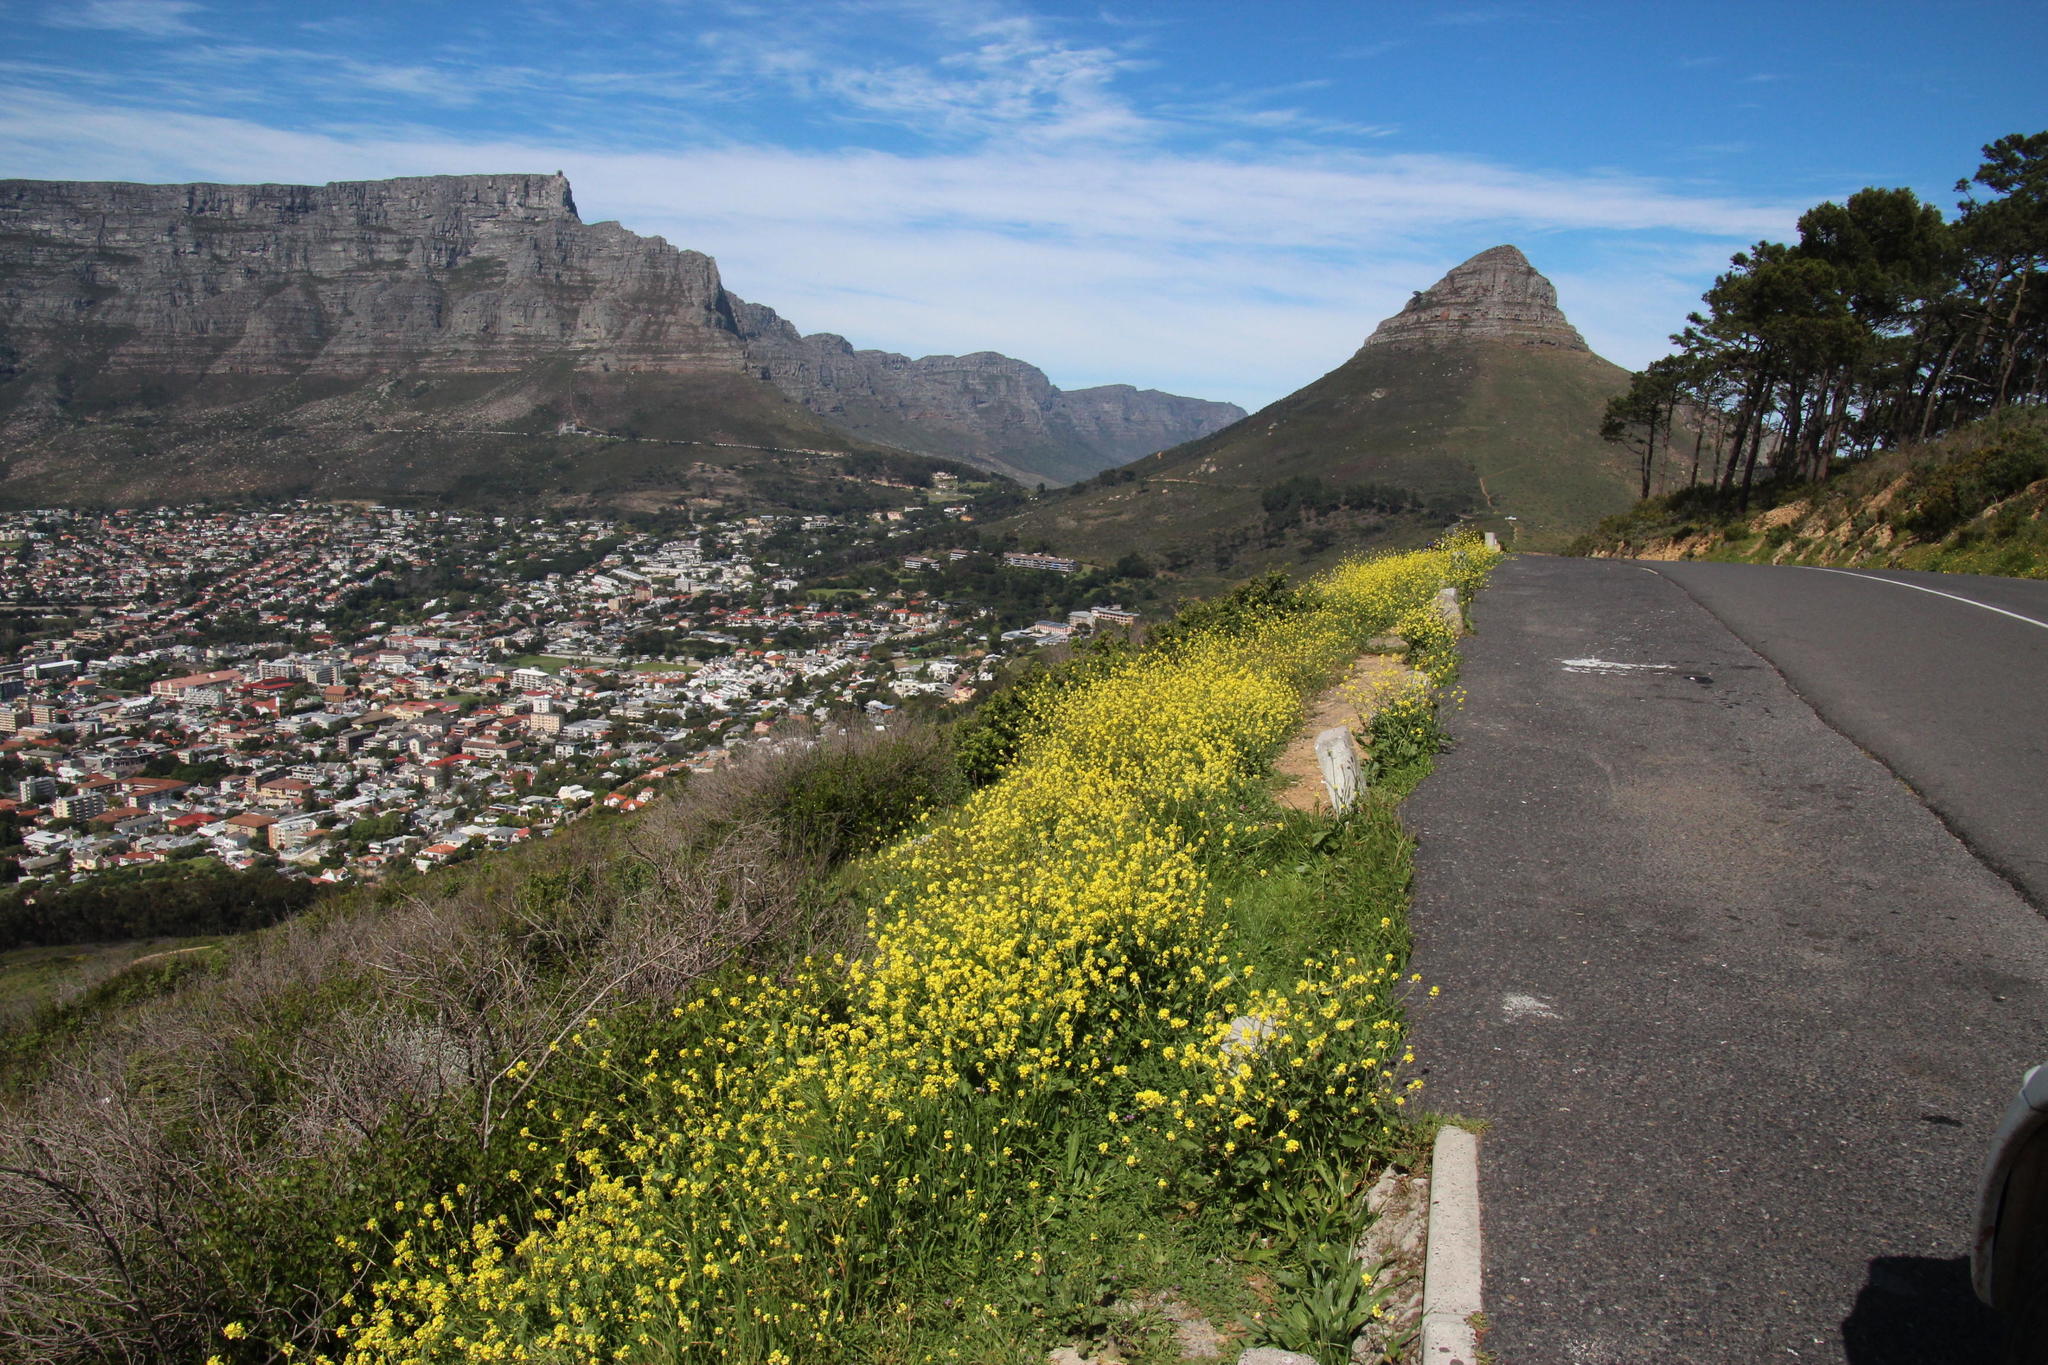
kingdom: Plantae
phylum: Tracheophyta
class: Magnoliopsida
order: Brassicales
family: Brassicaceae
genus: Rapistrum
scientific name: Rapistrum rugosum
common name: Annual bastardcabbage
